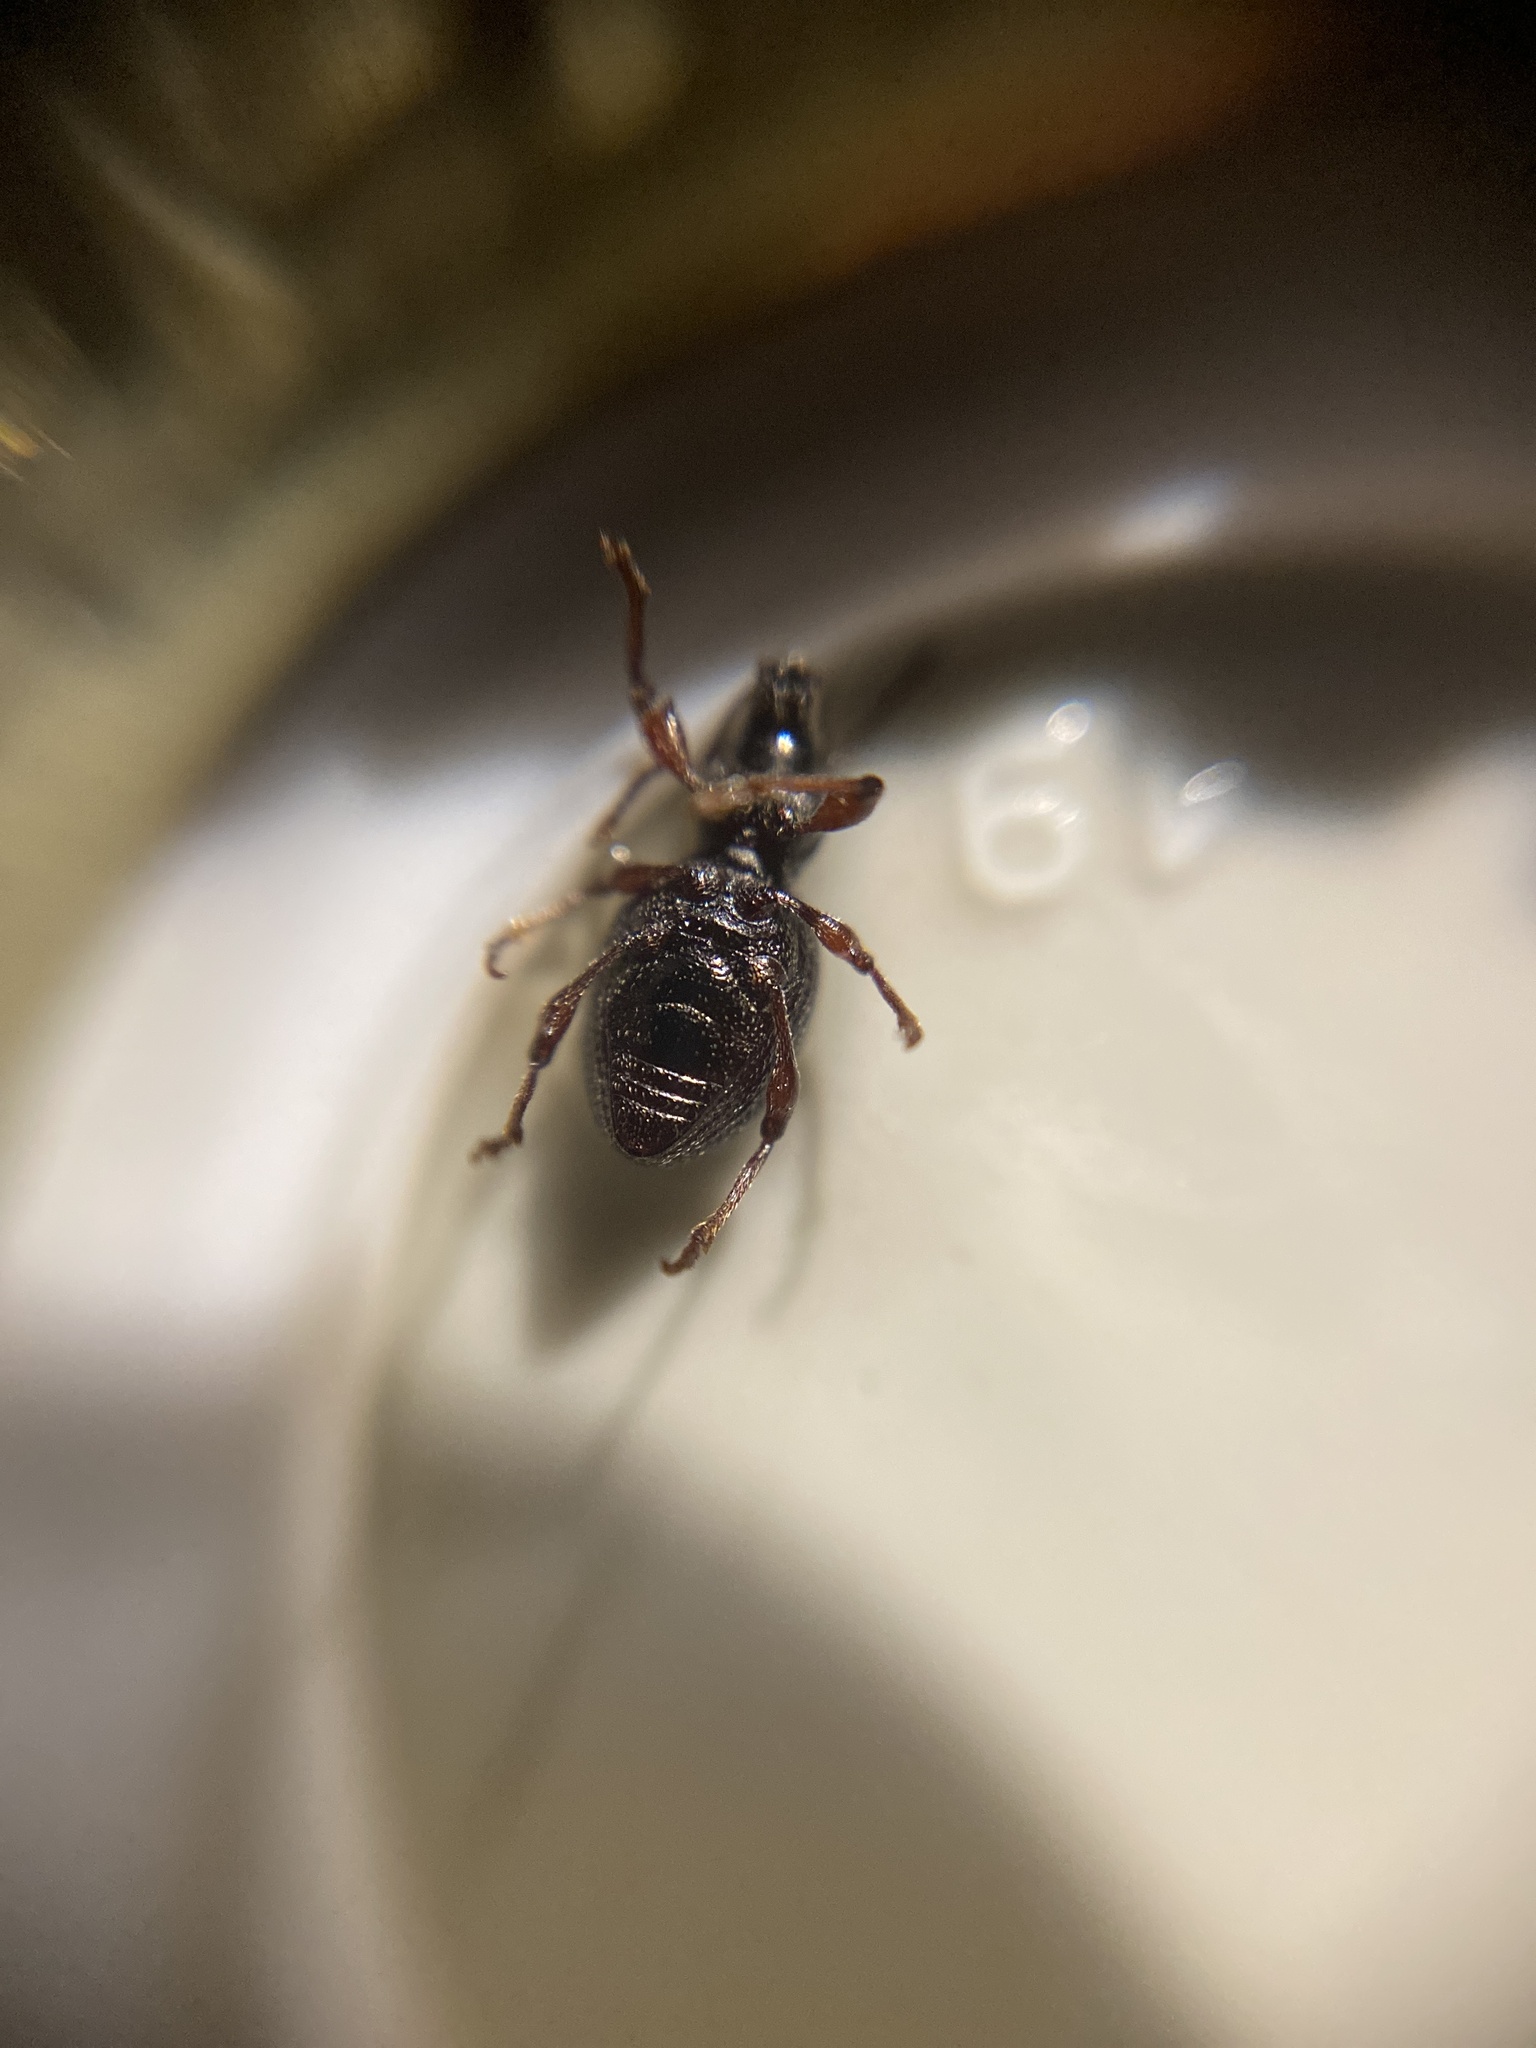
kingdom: Animalia
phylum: Arthropoda
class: Insecta
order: Coleoptera
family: Curculionidae
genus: Otiorhynchus
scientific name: Otiorhynchus ovatus
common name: Strawberry root weevil
